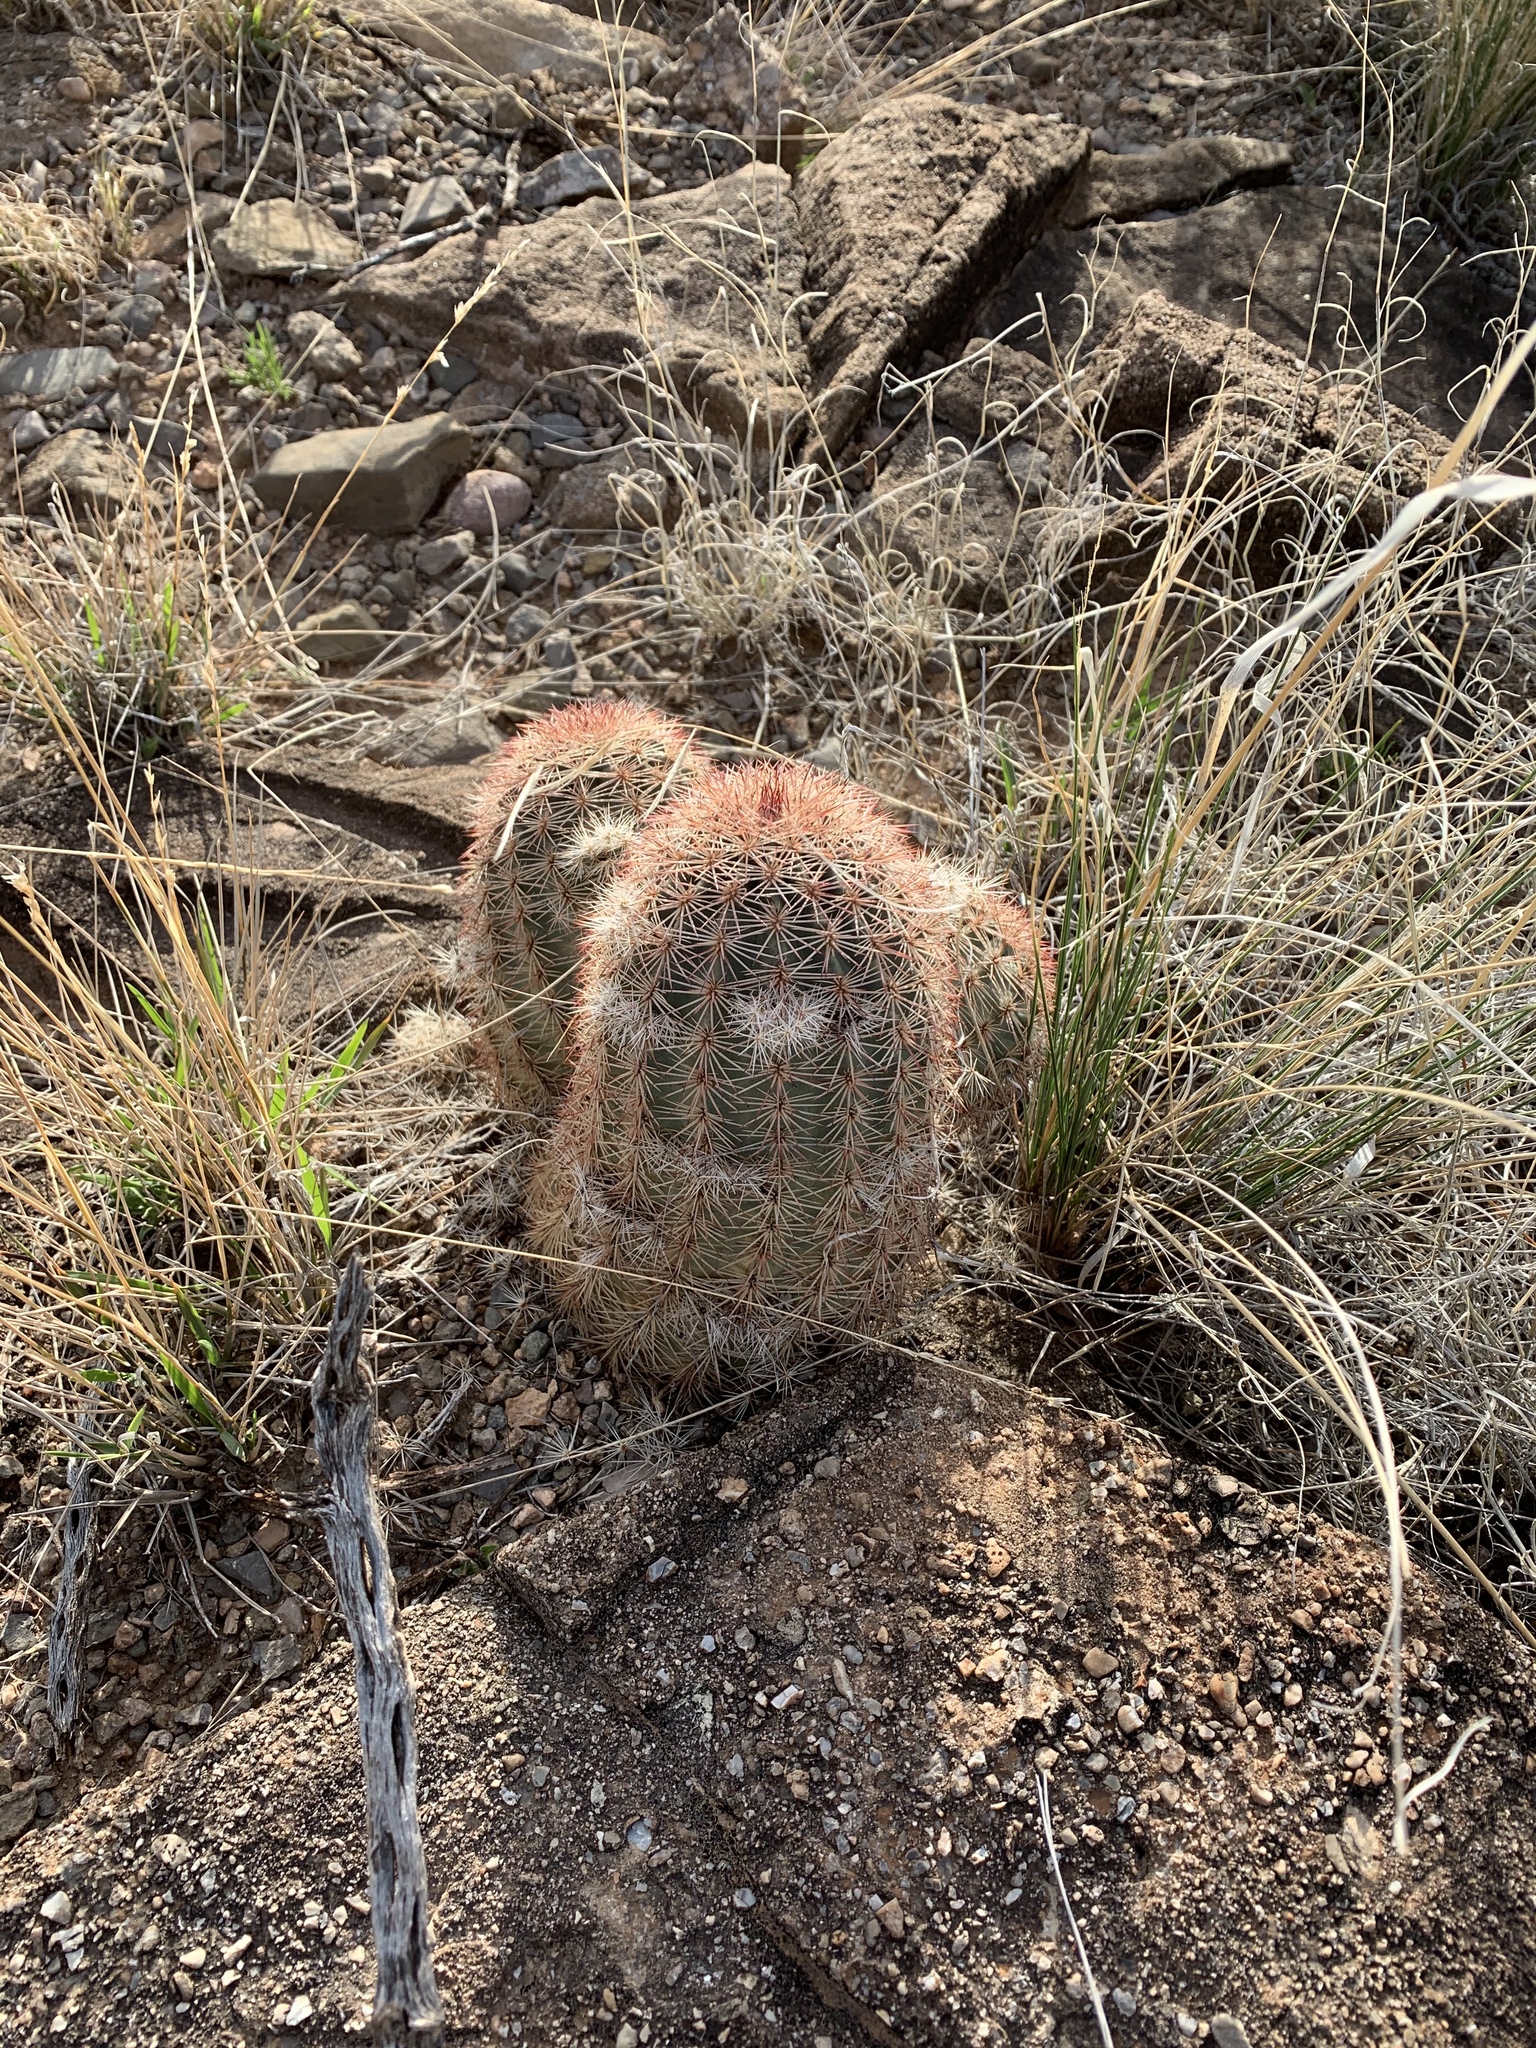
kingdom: Plantae
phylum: Tracheophyta
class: Magnoliopsida
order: Caryophyllales
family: Cactaceae
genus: Echinocereus
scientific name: Echinocereus dasyacanthus
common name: Spiny hedgehog cactus
